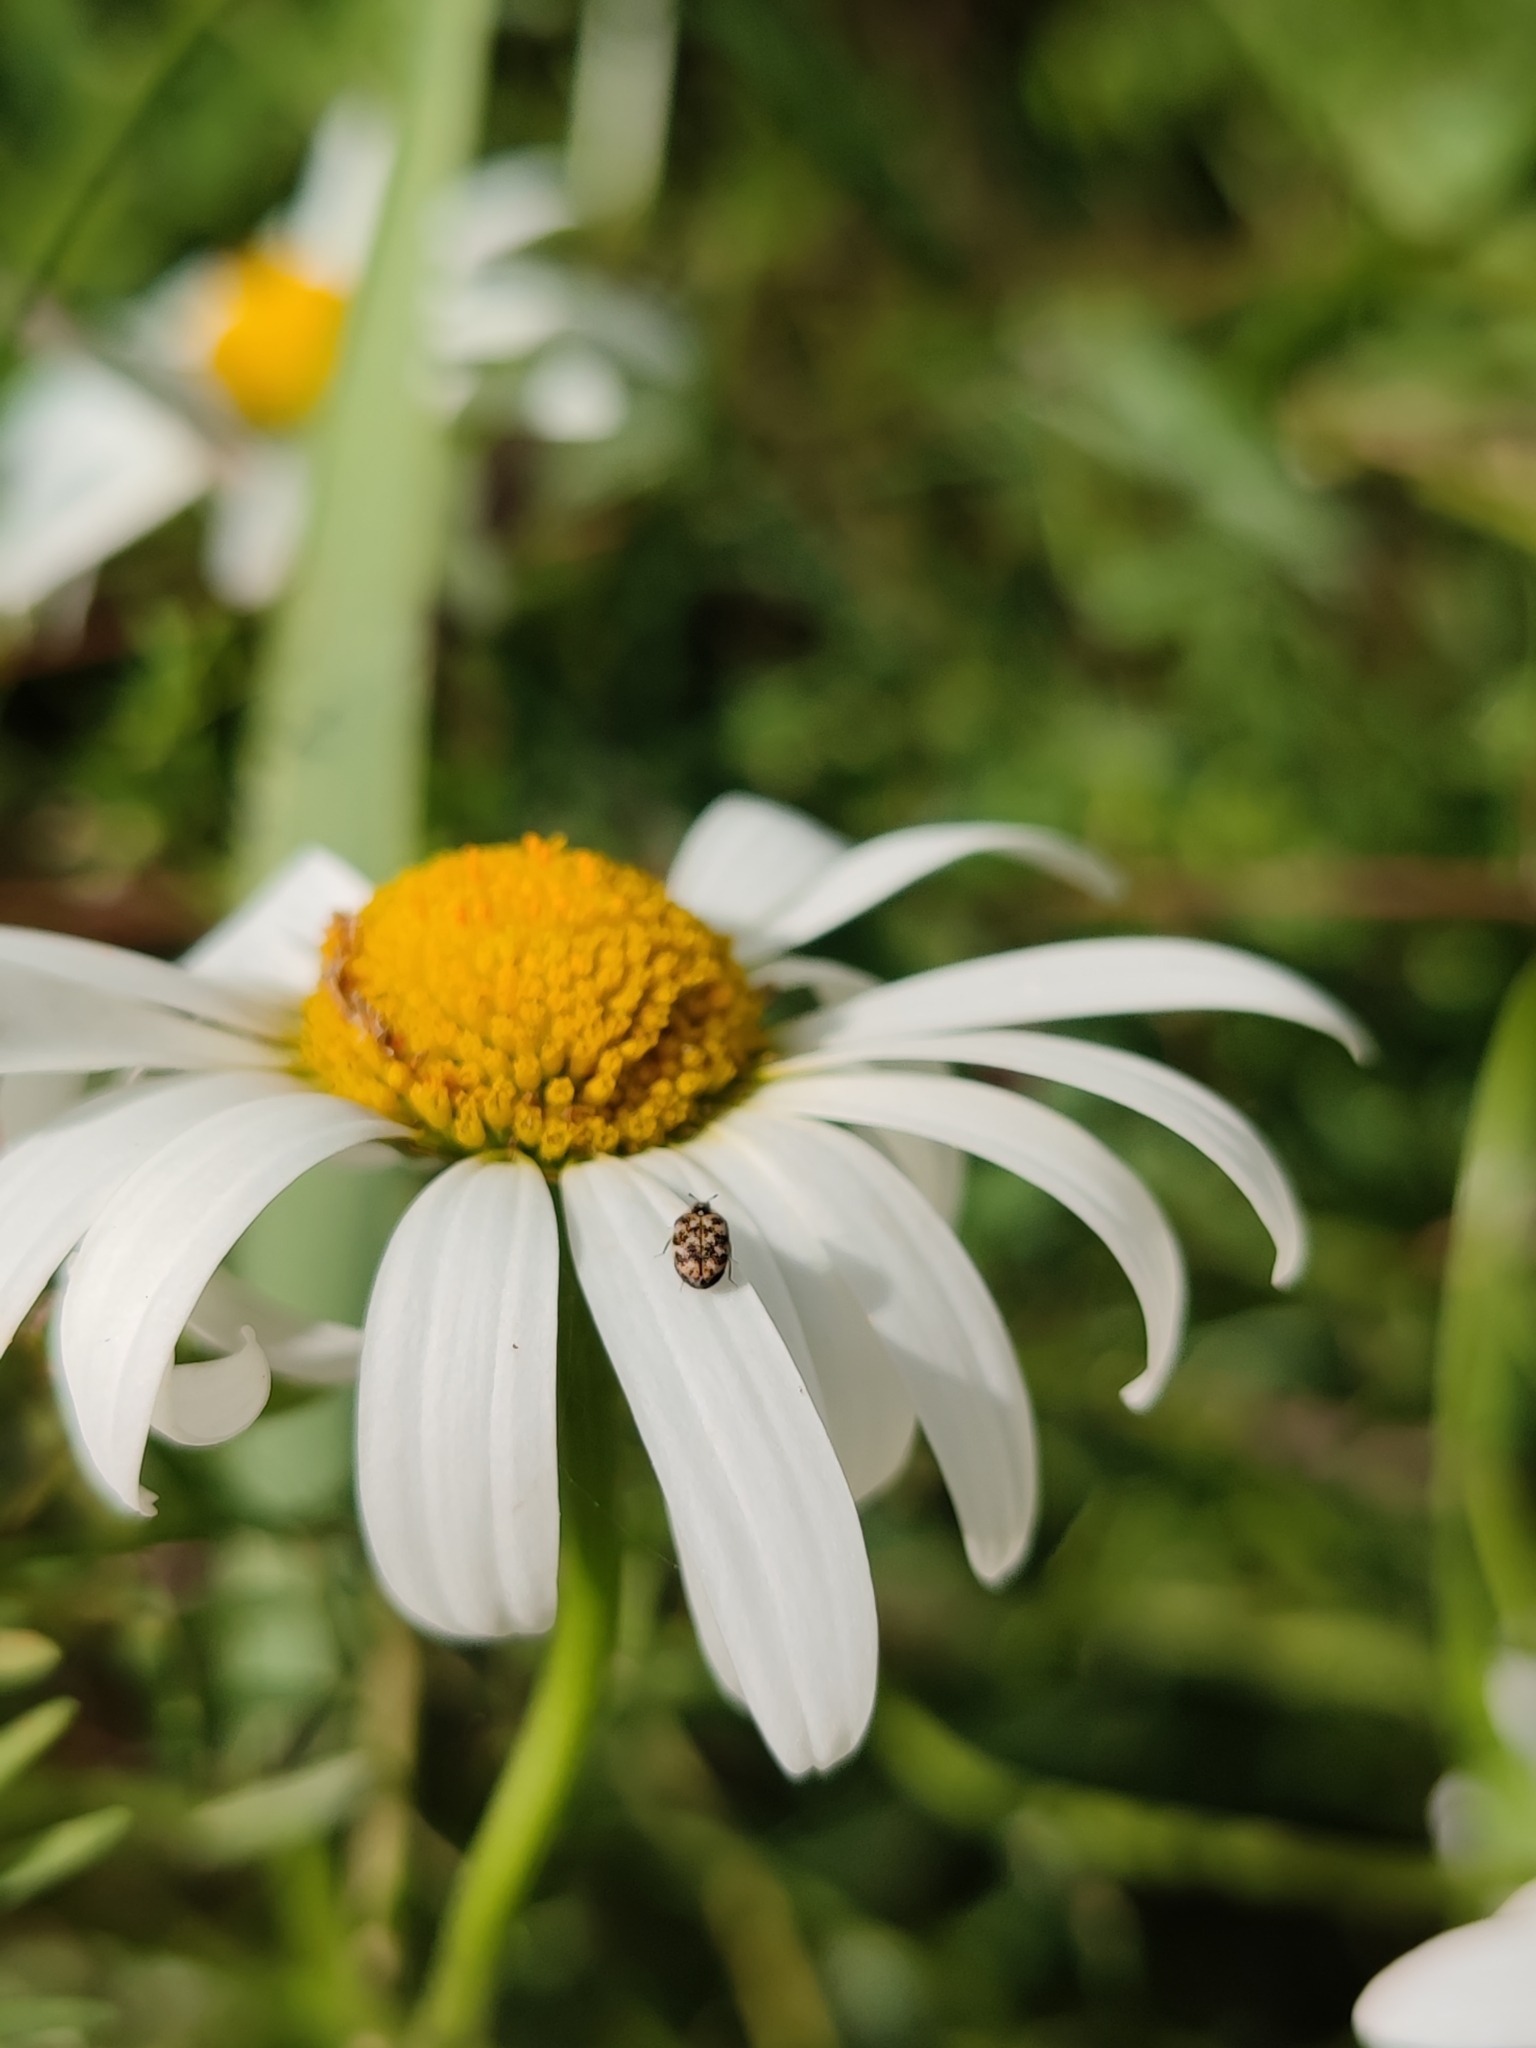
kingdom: Animalia
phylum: Arthropoda
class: Insecta
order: Coleoptera
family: Dermestidae
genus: Anthrenus
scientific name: Anthrenus verbasci
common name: Varied carpet beetle
